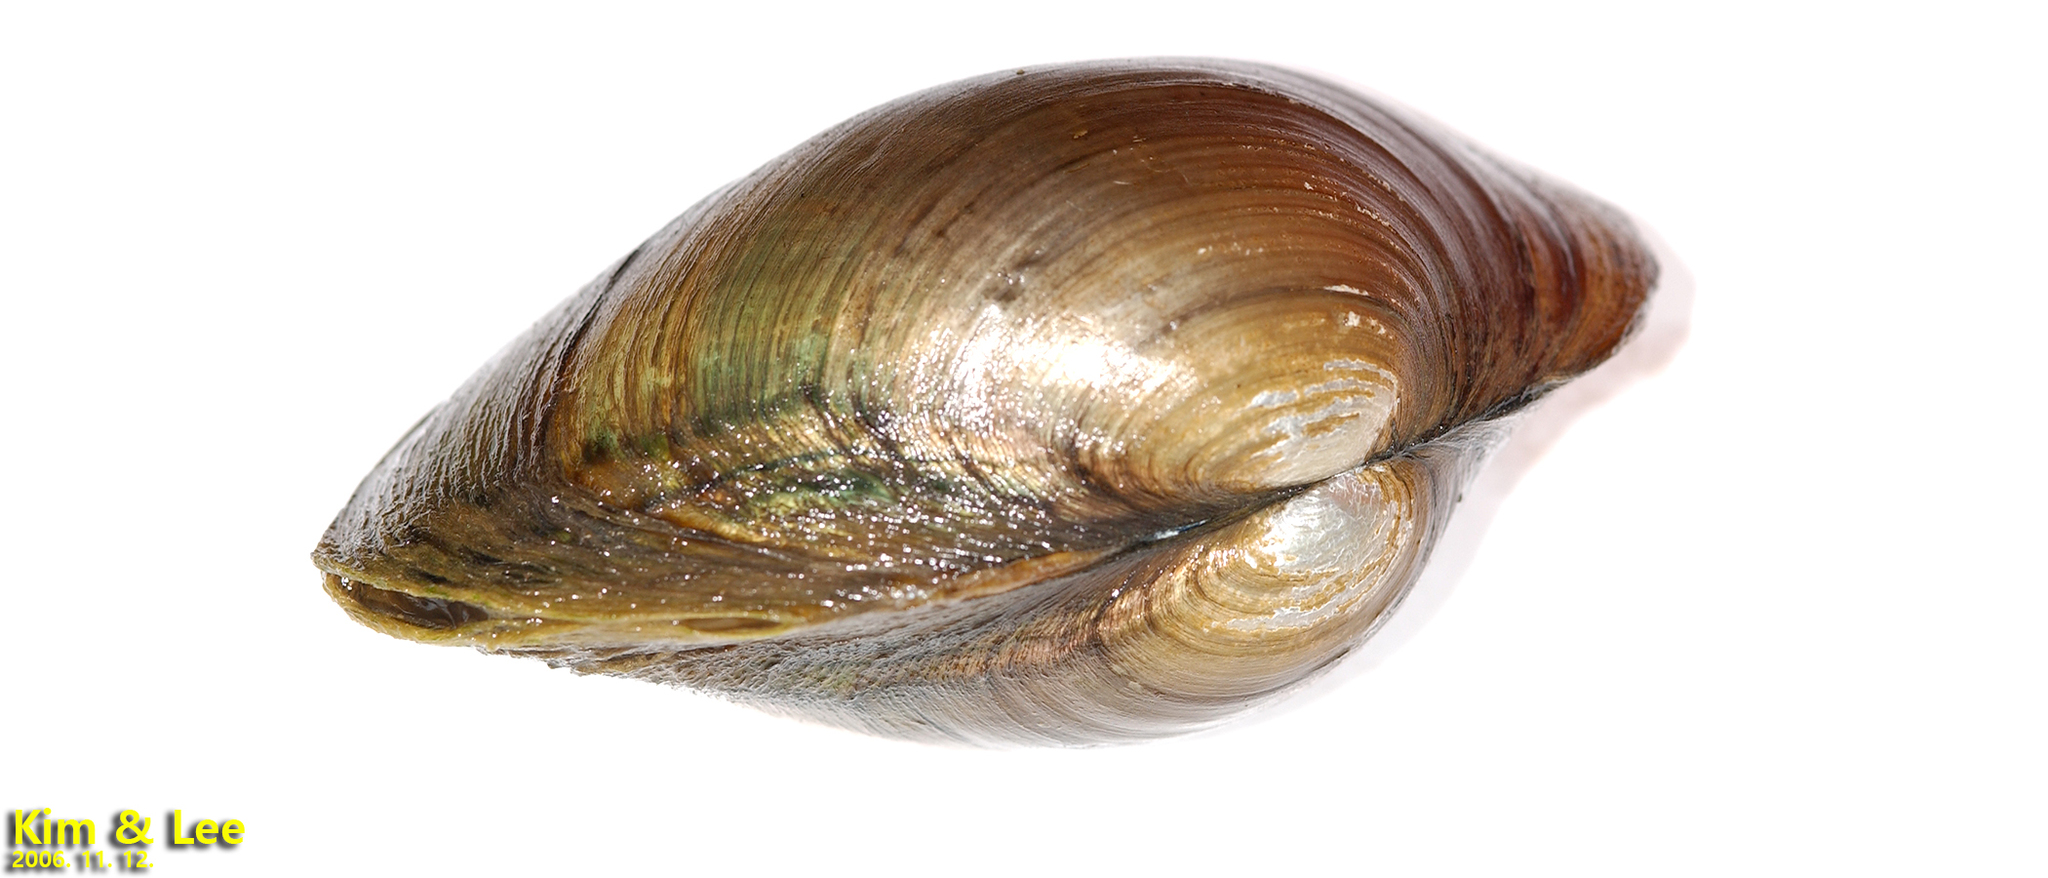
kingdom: Animalia
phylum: Mollusca
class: Bivalvia
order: Unionida
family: Unionidae
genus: Buldowskia
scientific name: Buldowskia shadini
